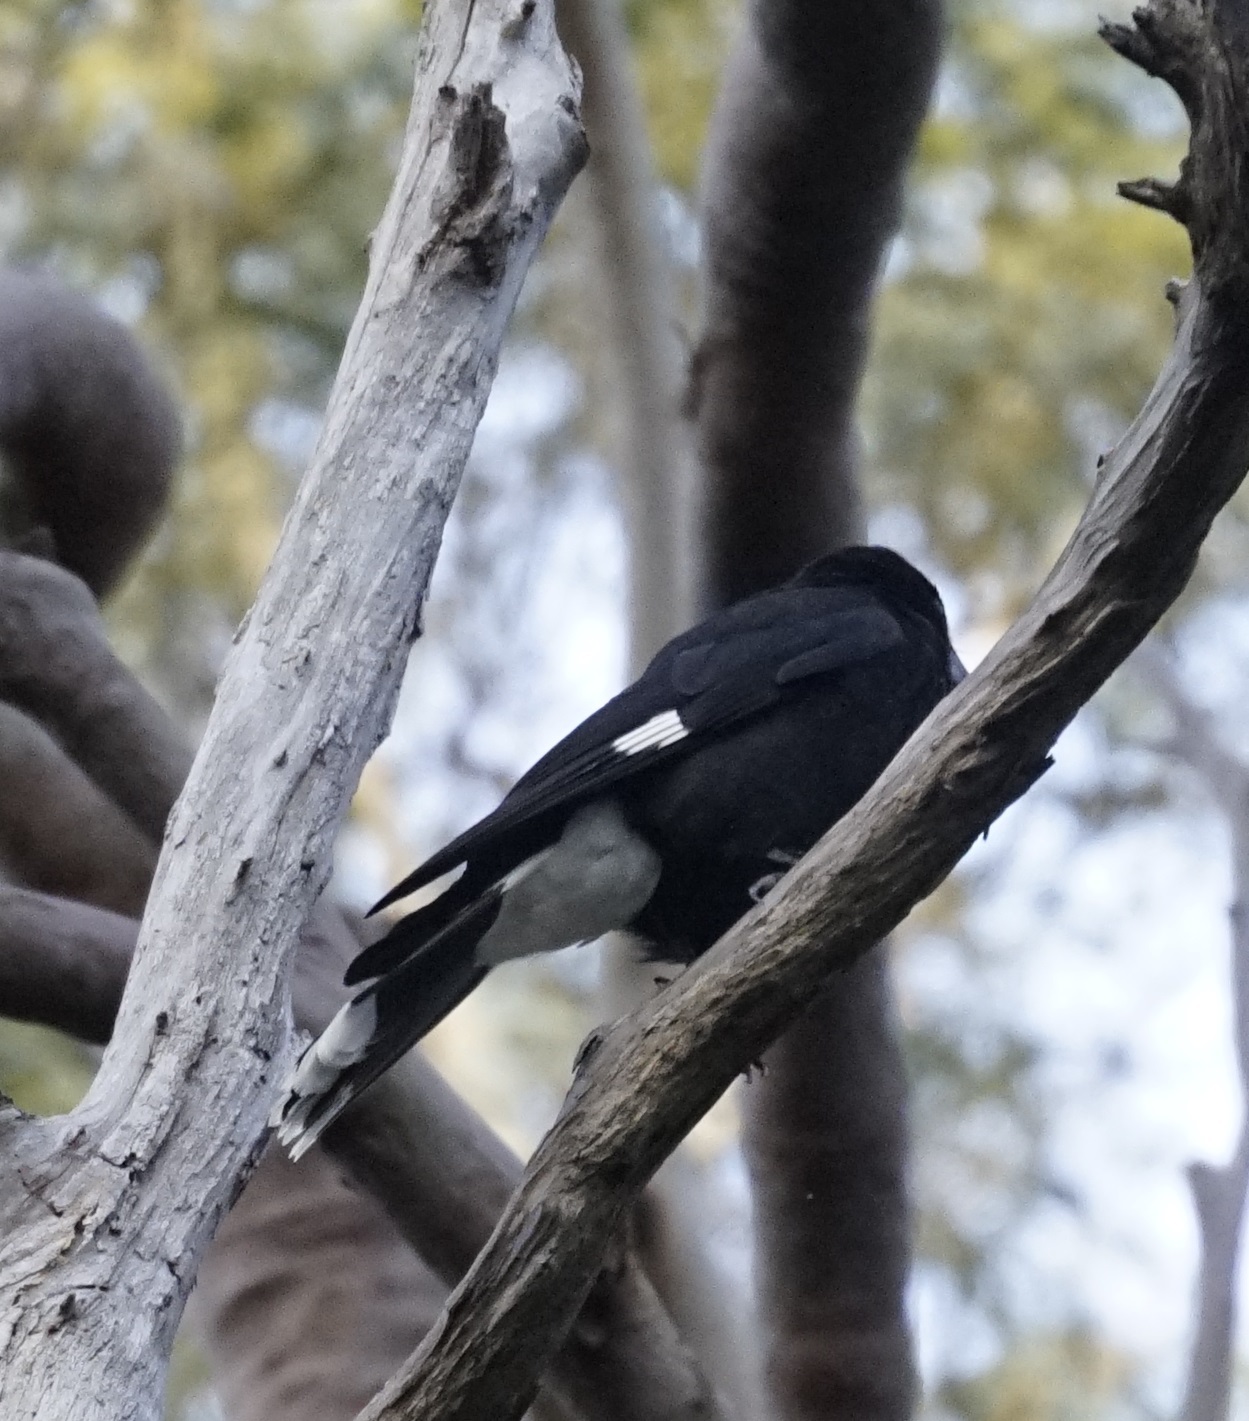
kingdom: Animalia
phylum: Chordata
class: Aves
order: Passeriformes
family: Cracticidae
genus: Strepera
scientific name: Strepera graculina
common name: Pied currawong
